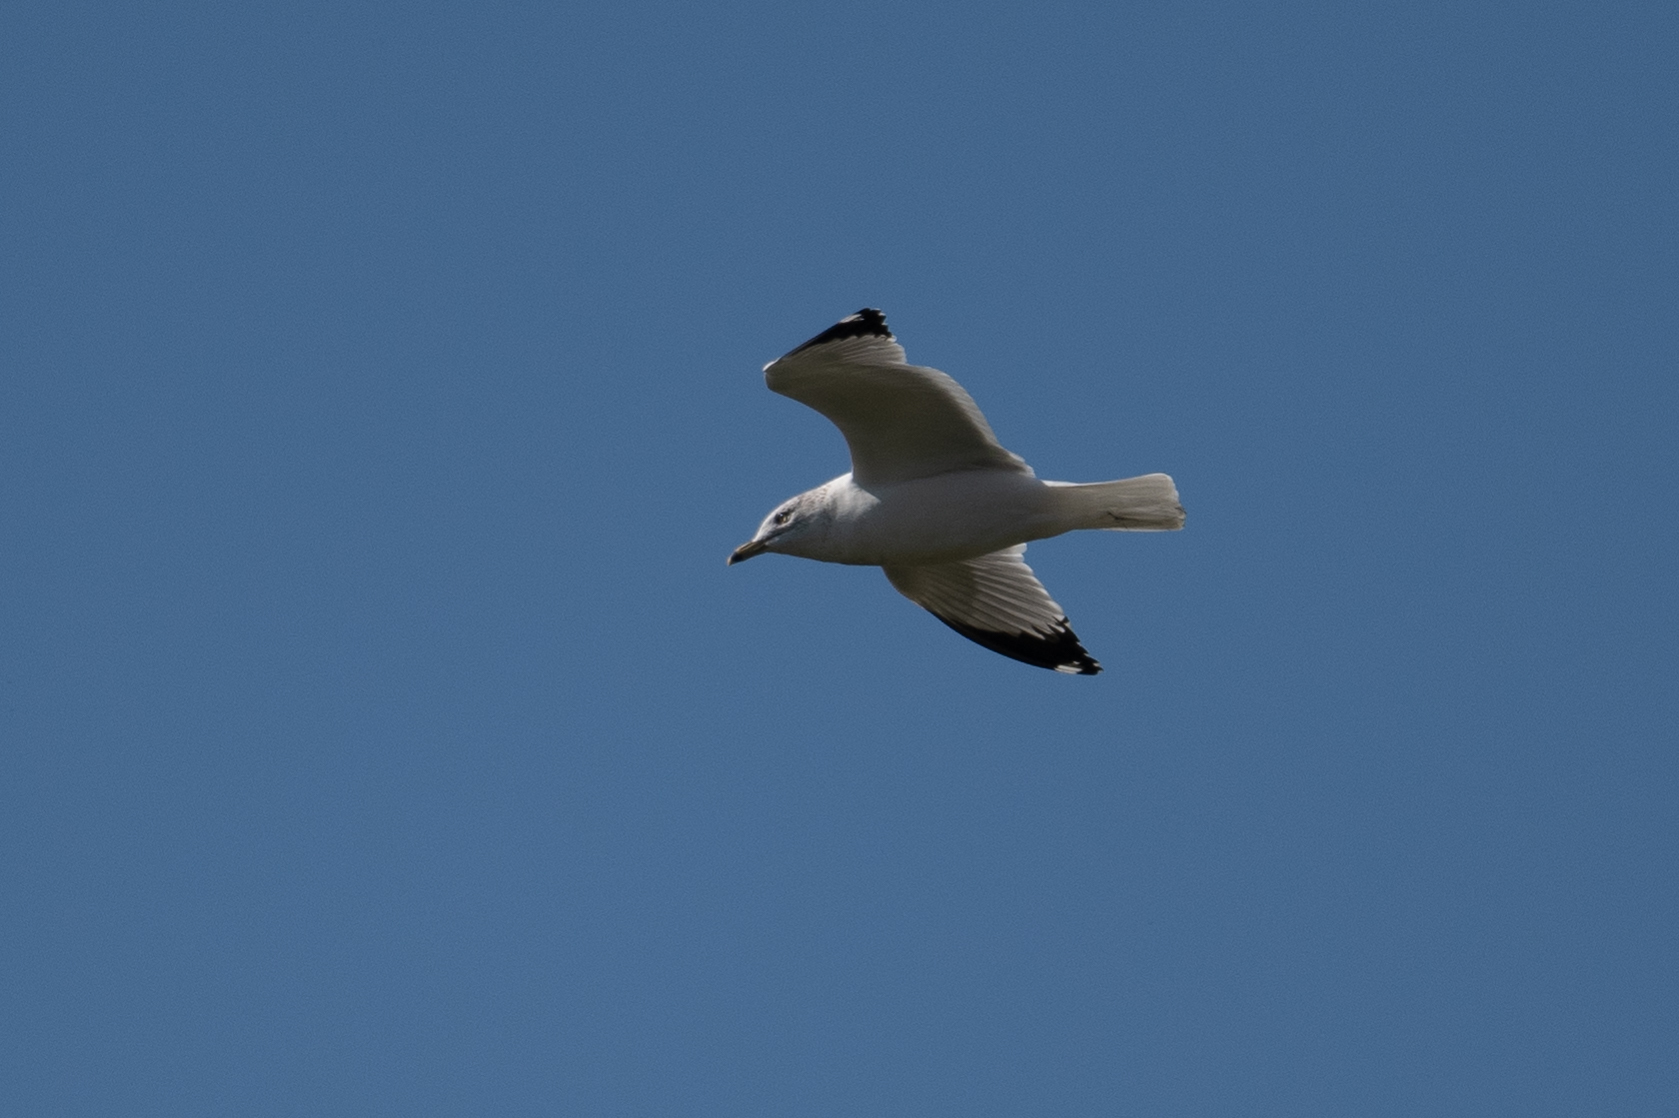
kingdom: Animalia
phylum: Chordata
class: Aves
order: Charadriiformes
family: Laridae
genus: Larus
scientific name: Larus delawarensis
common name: Ring-billed gull
